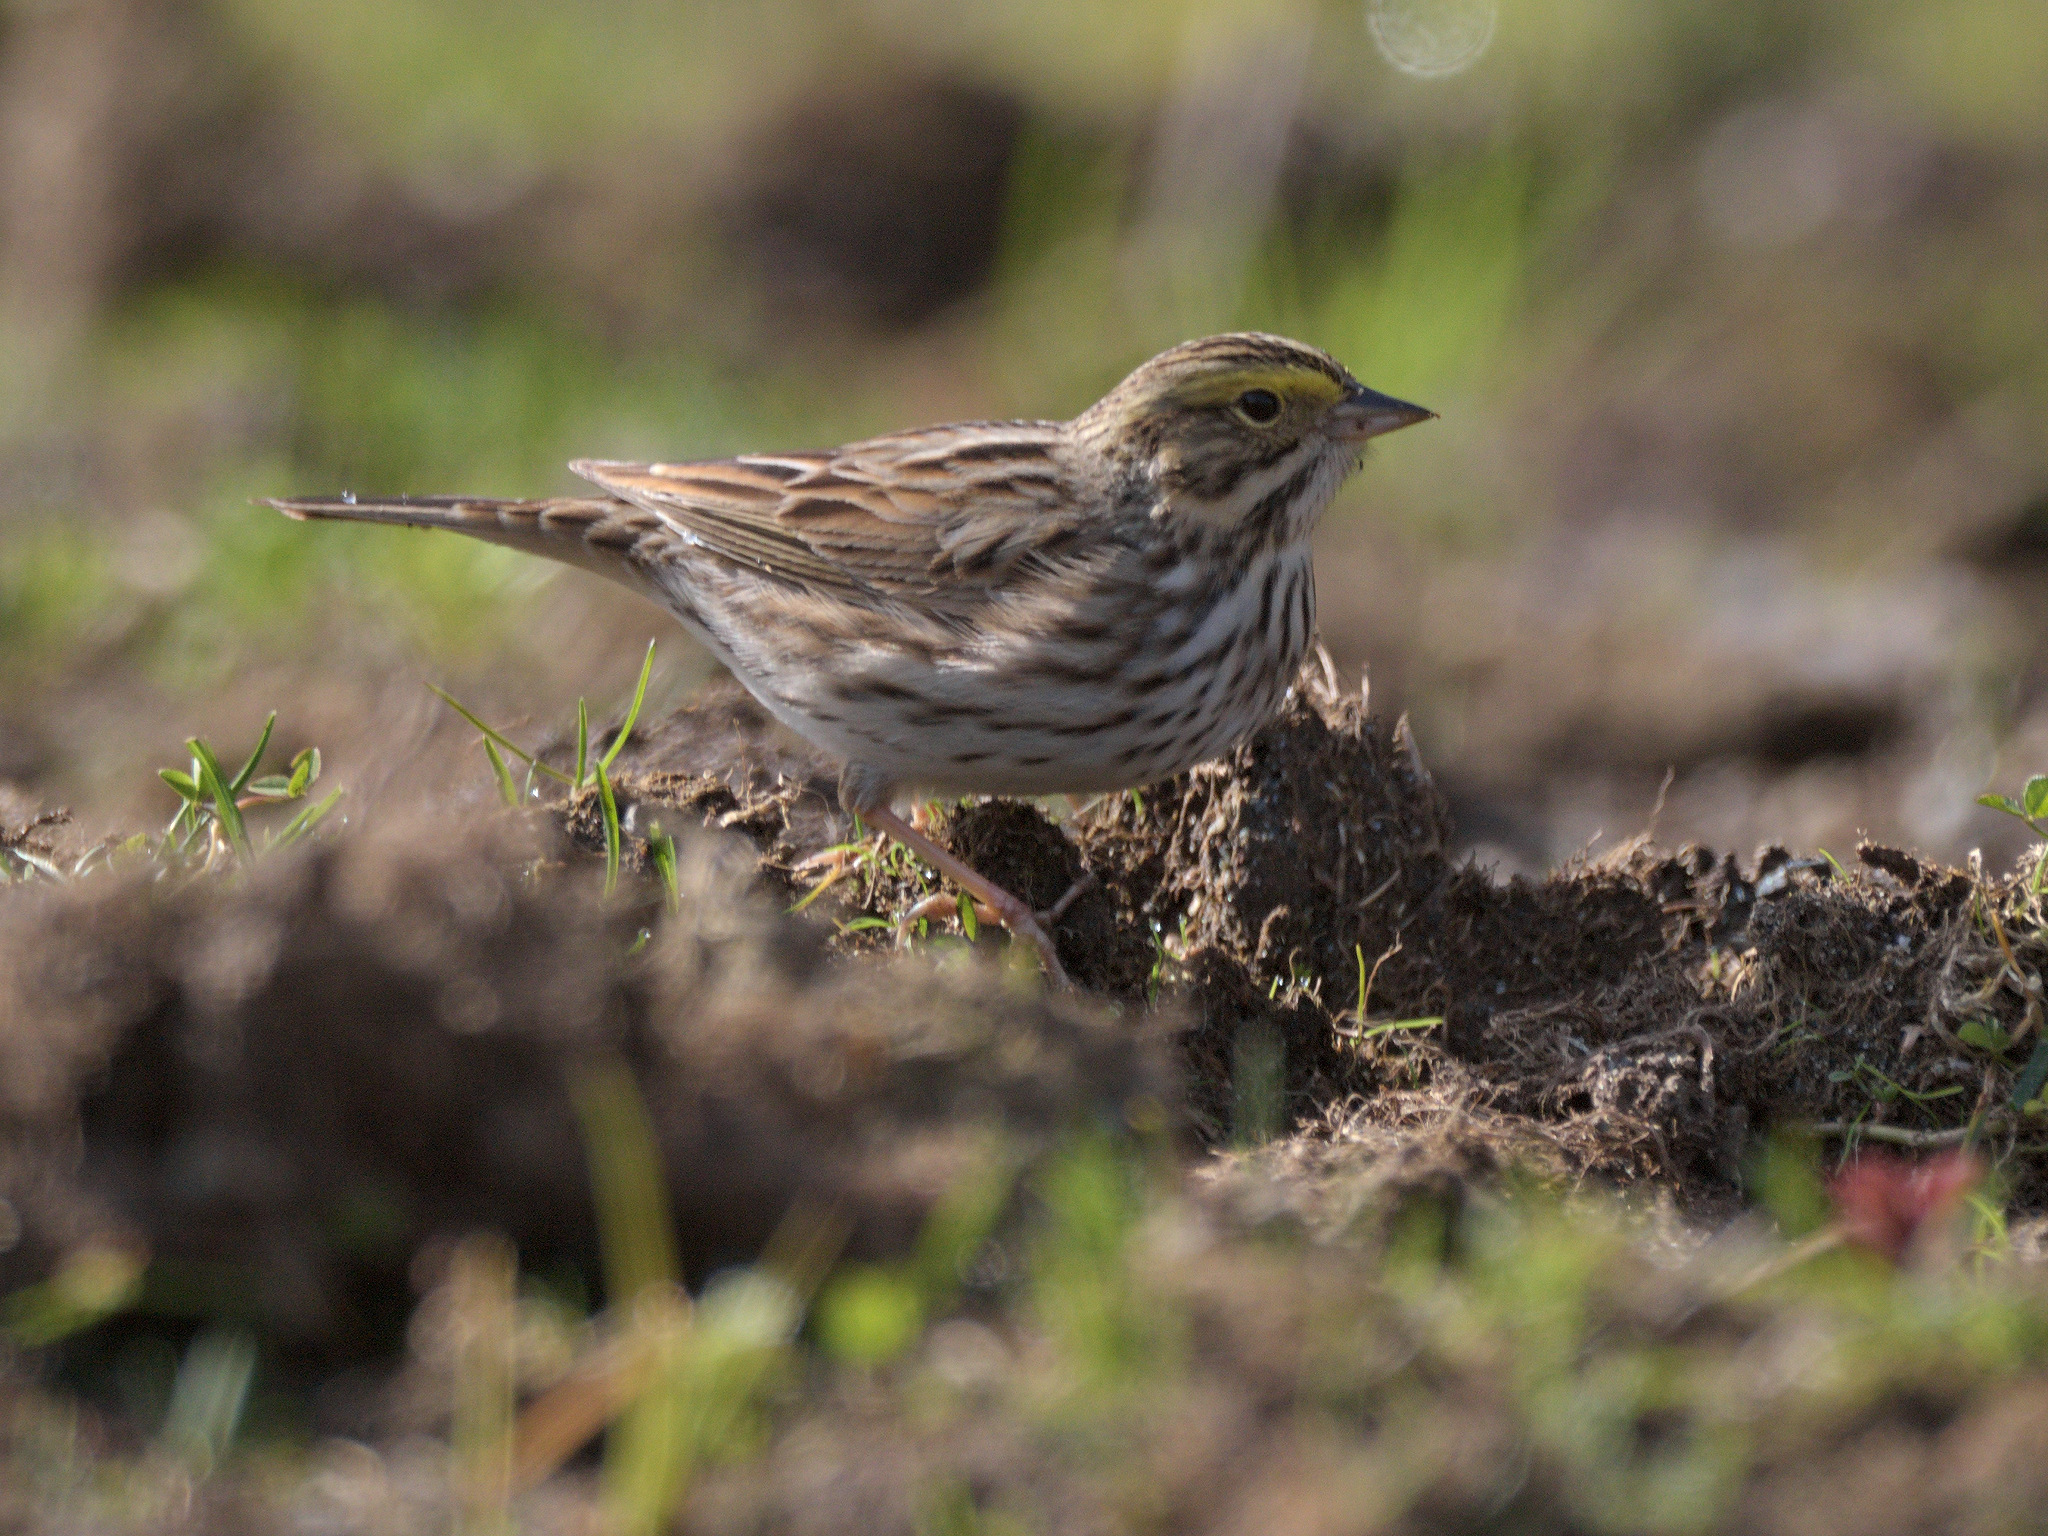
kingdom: Animalia
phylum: Chordata
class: Aves
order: Passeriformes
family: Passerellidae
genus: Passerculus
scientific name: Passerculus sandwichensis
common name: Savannah sparrow
